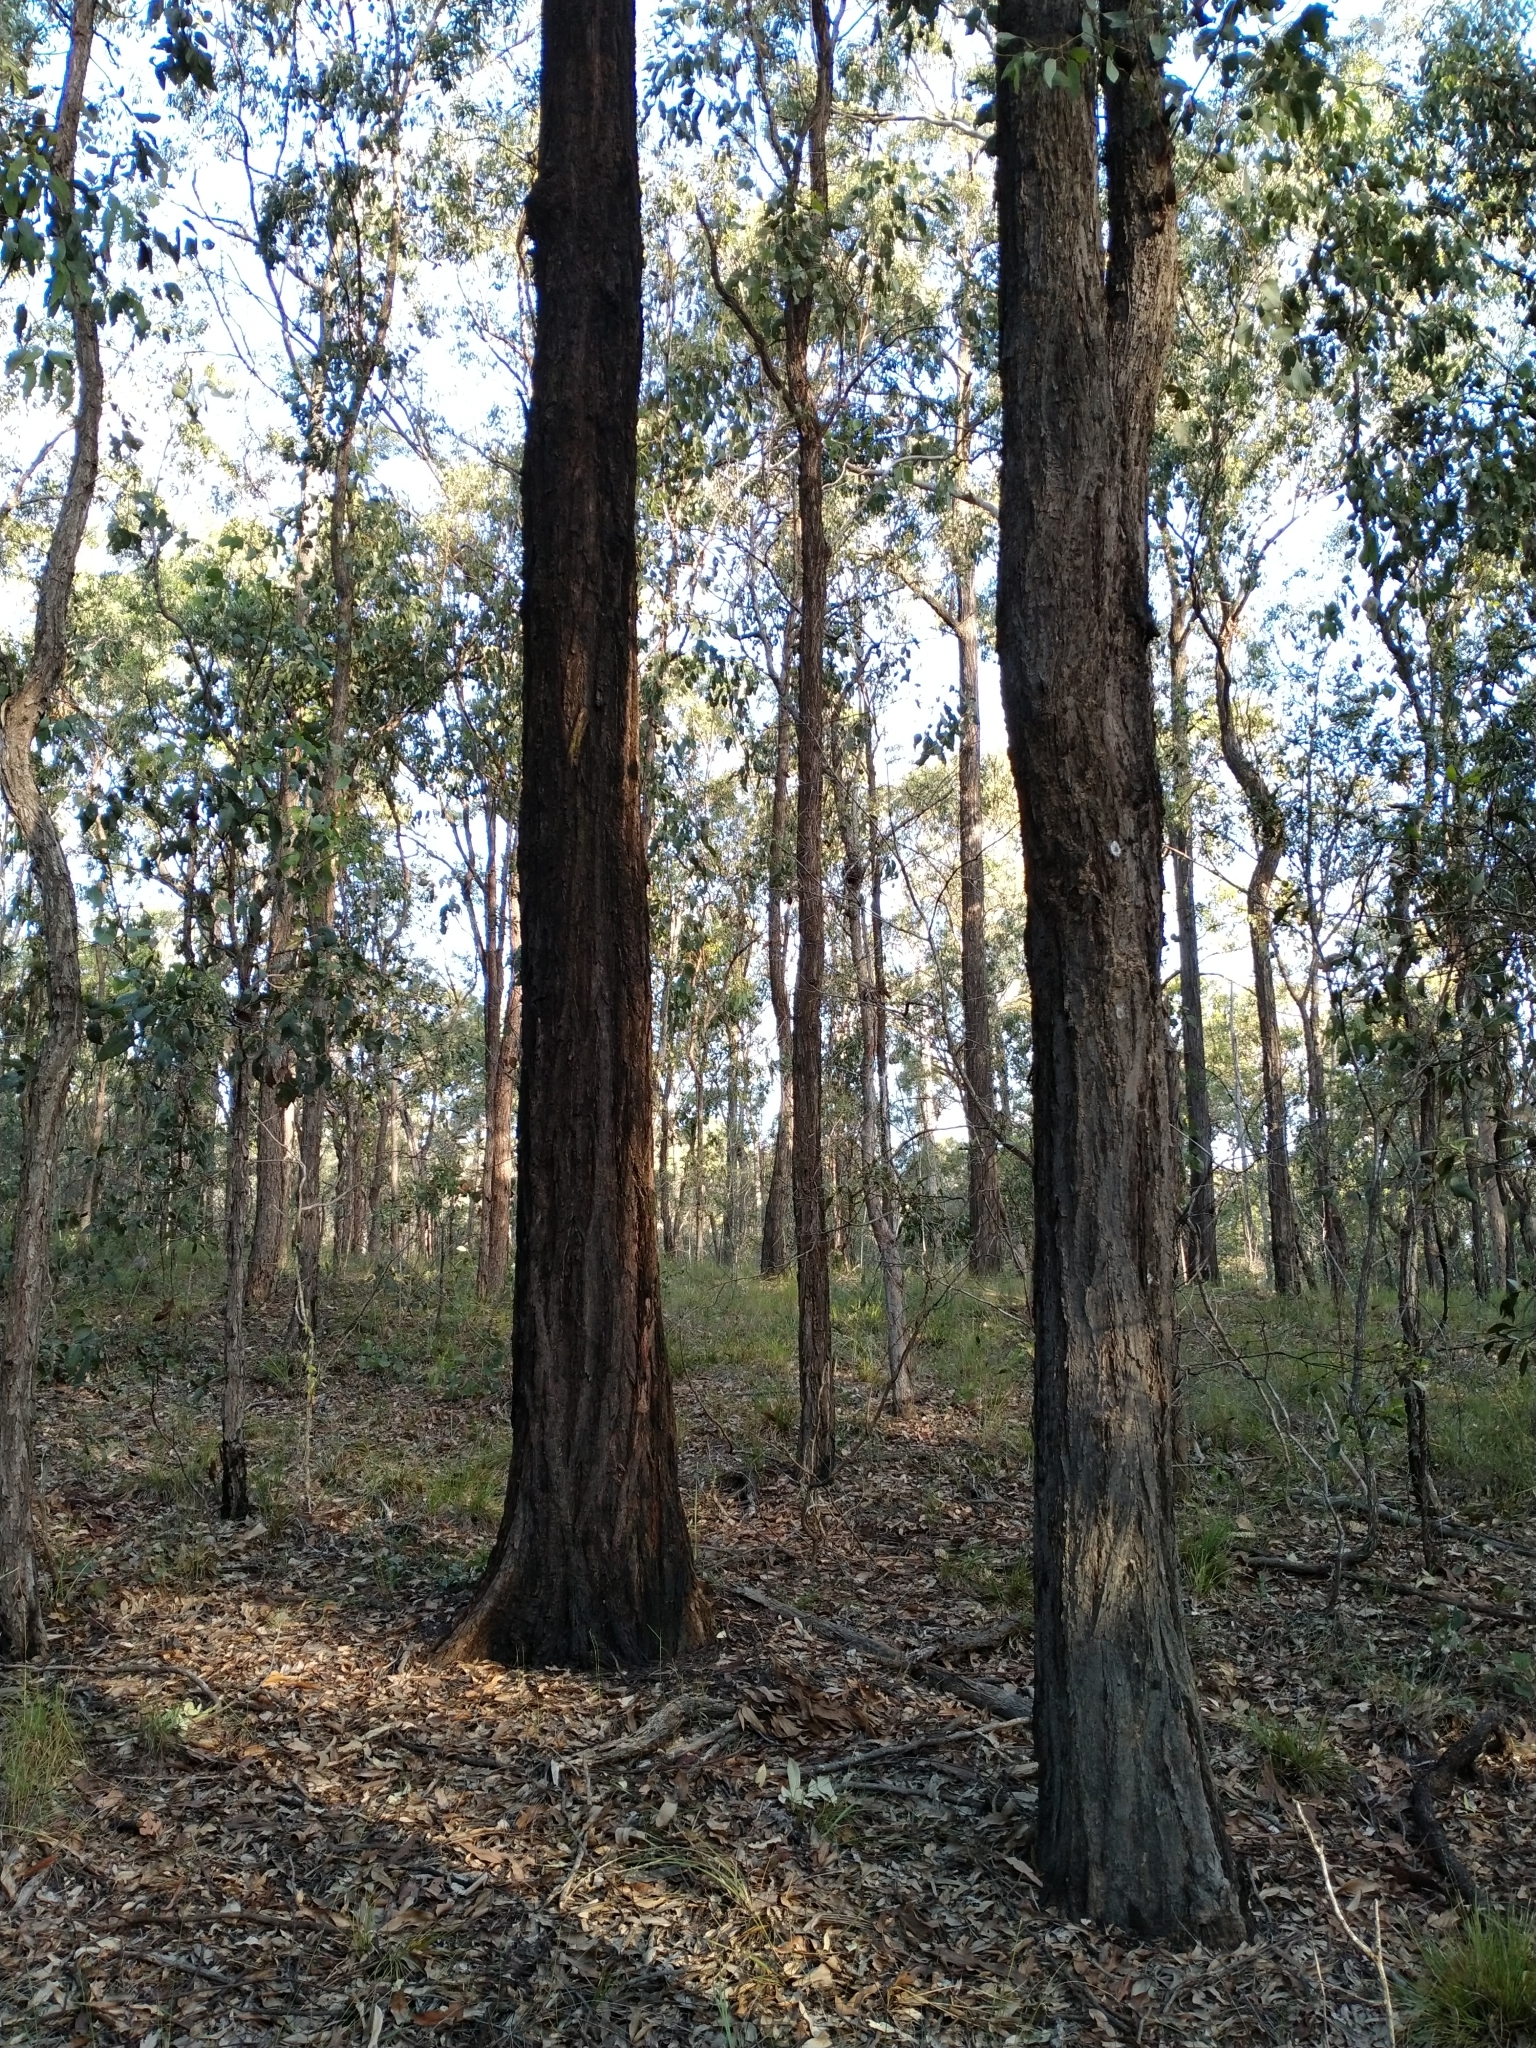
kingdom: Plantae
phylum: Tracheophyta
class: Magnoliopsida
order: Myrtales
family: Myrtaceae
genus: Eucalyptus
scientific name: Eucalyptus fibrosa
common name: Red ironbark
